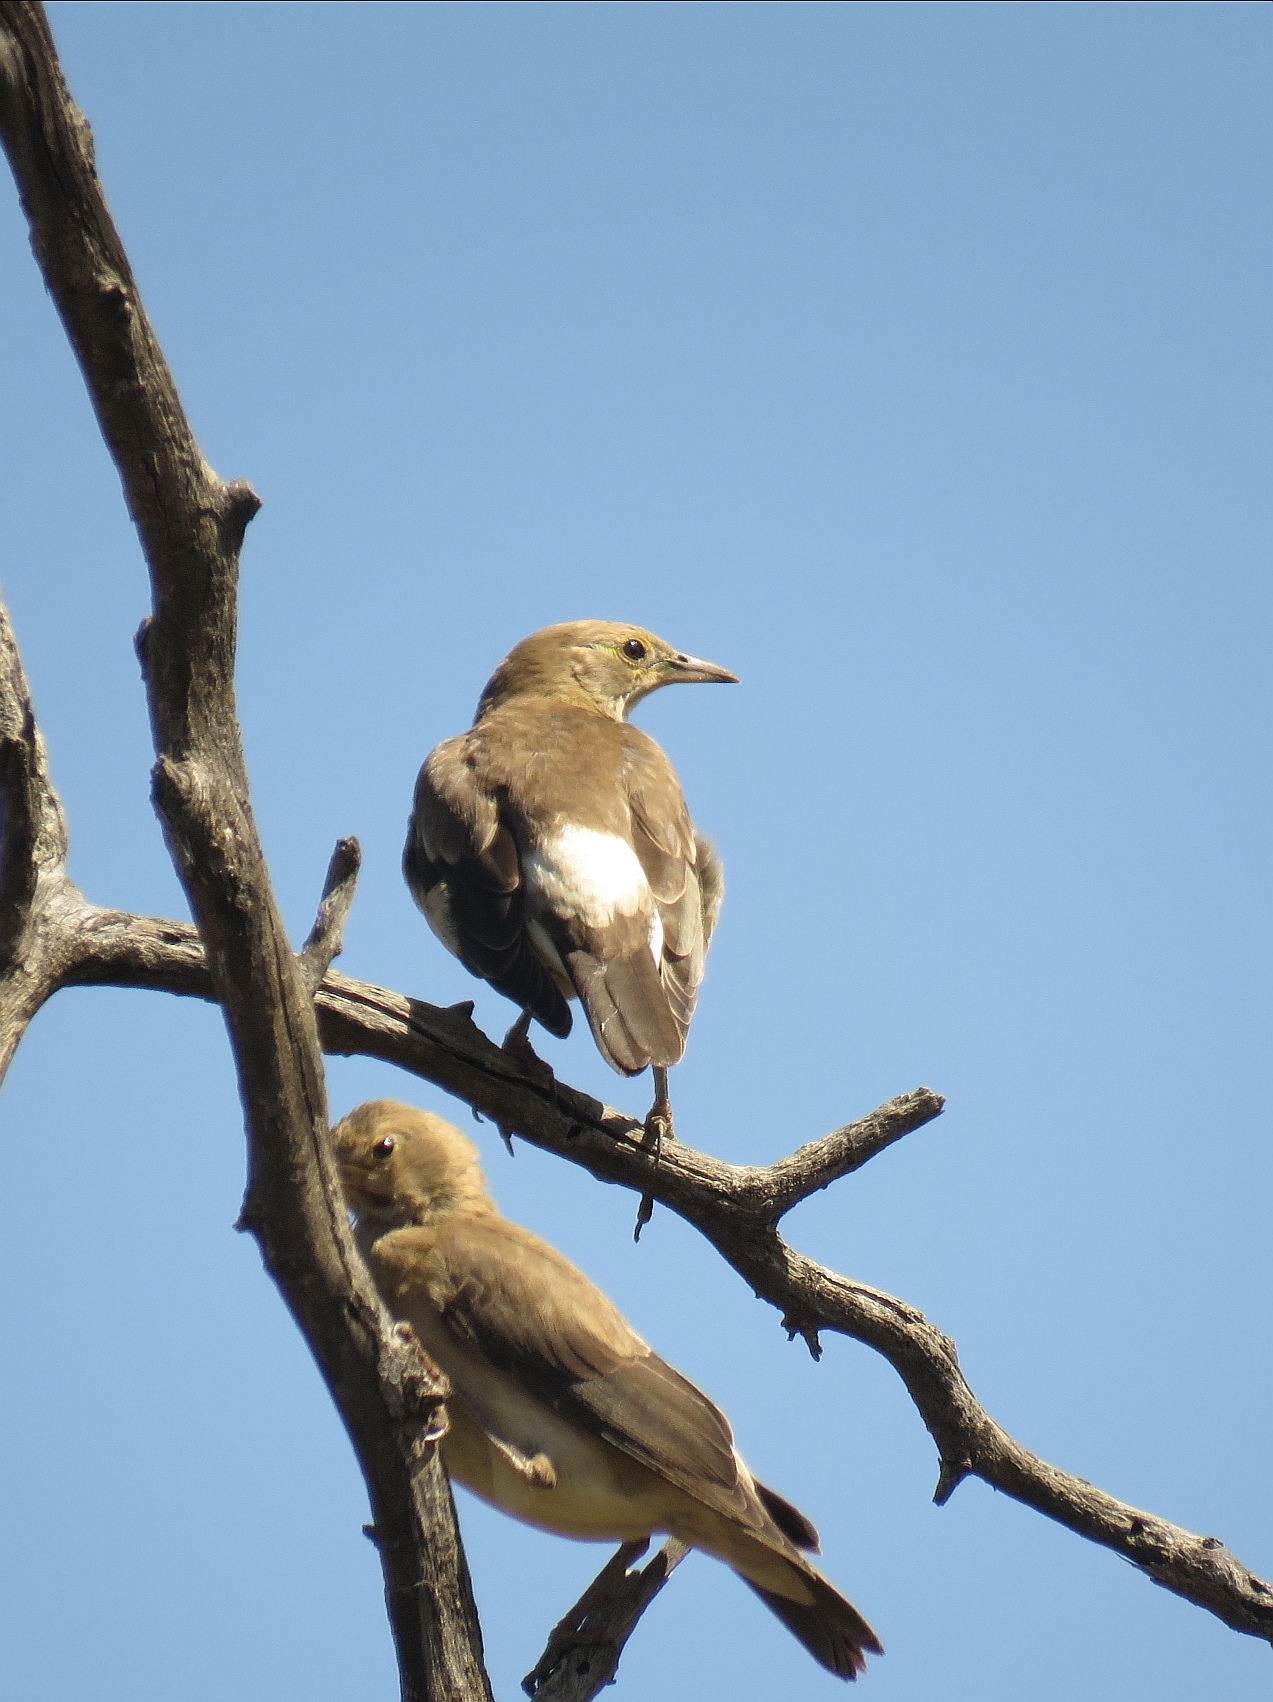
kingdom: Animalia
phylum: Chordata
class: Aves
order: Passeriformes
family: Sturnidae
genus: Creatophora
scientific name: Creatophora cinerea
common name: Wattled starling
